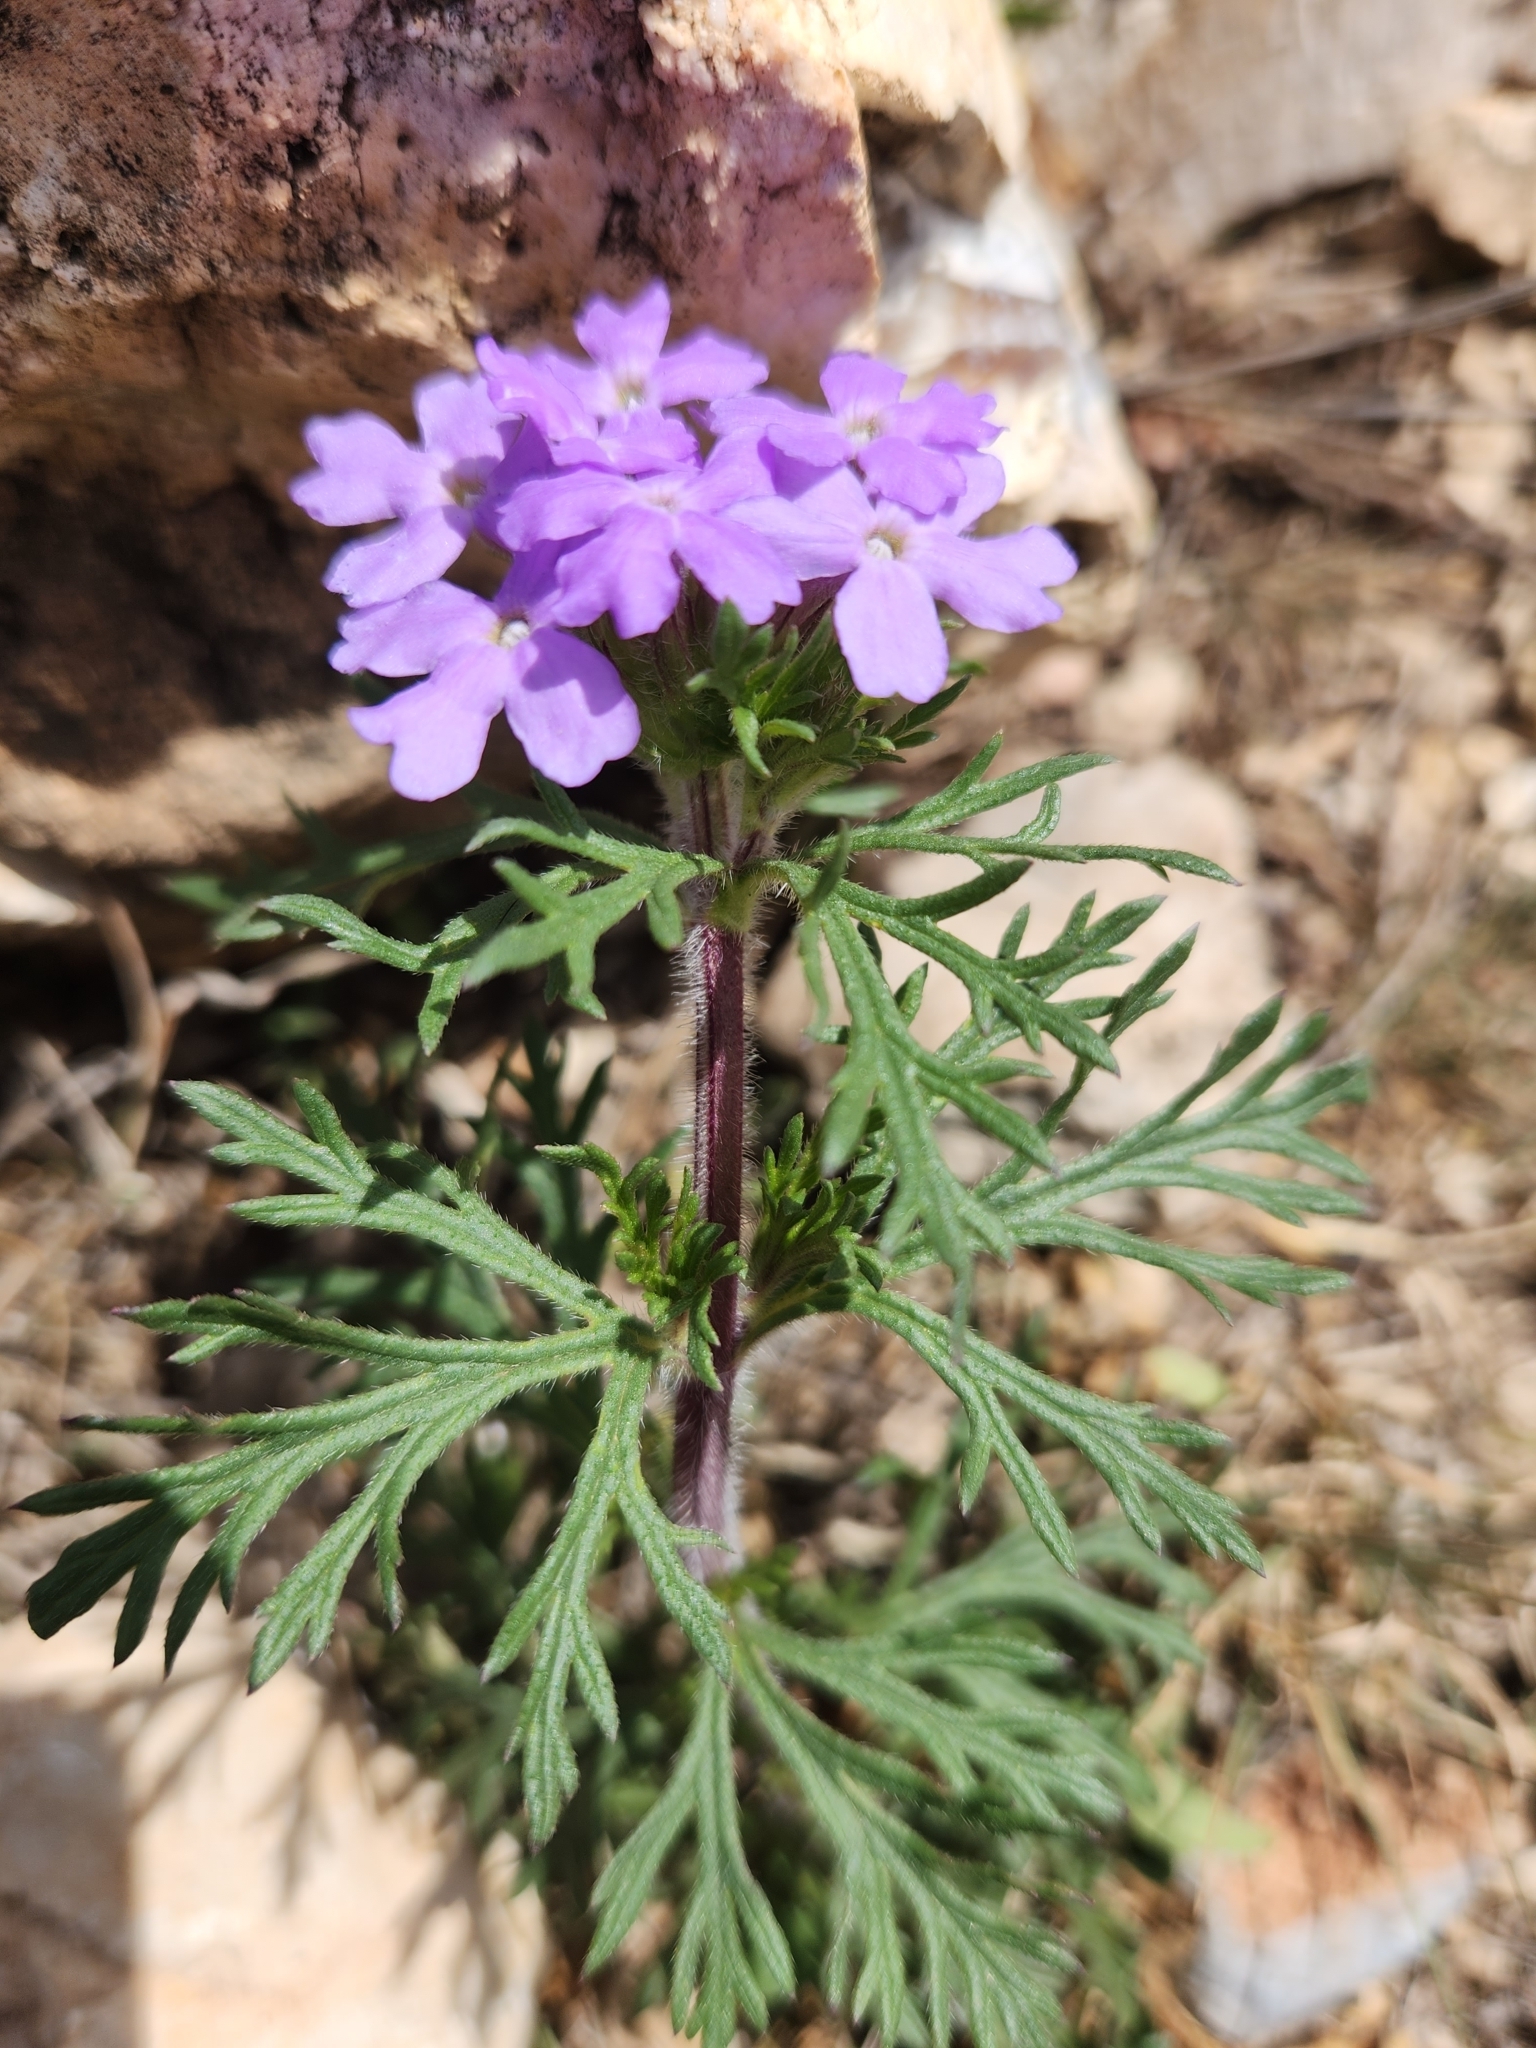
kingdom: Plantae
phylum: Tracheophyta
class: Magnoliopsida
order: Lamiales
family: Verbenaceae
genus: Verbena
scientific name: Verbena bipinnatifida
